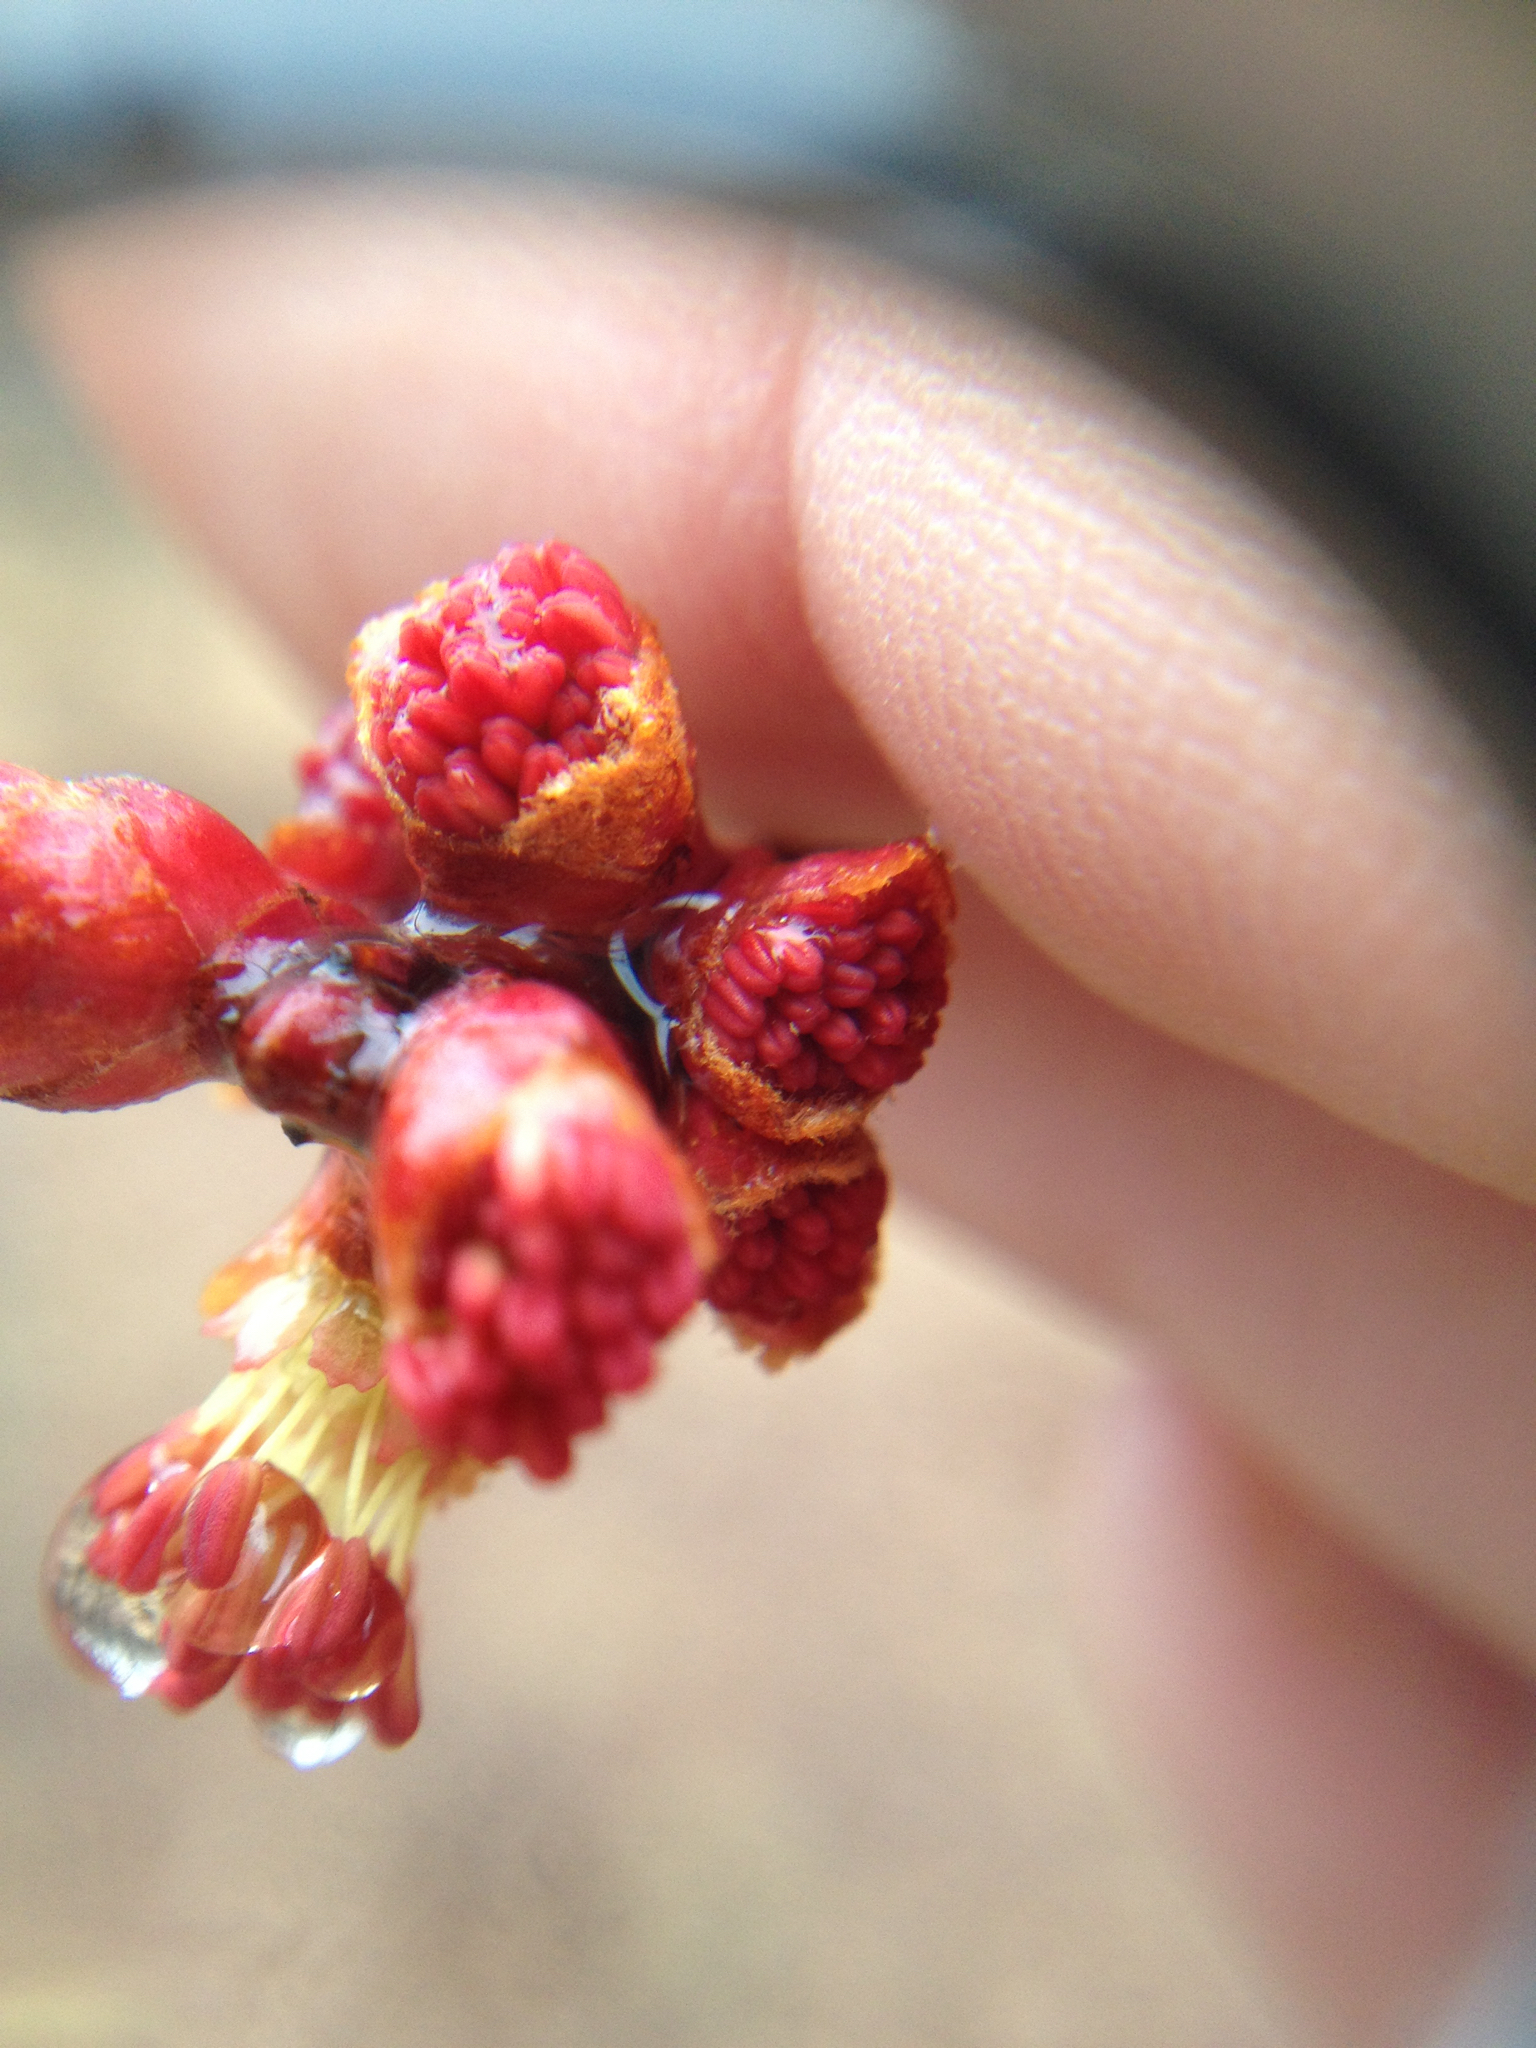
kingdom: Plantae
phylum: Tracheophyta
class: Magnoliopsida
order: Sapindales
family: Sapindaceae
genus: Acer
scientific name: Acer saccharinum
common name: Silver maple
